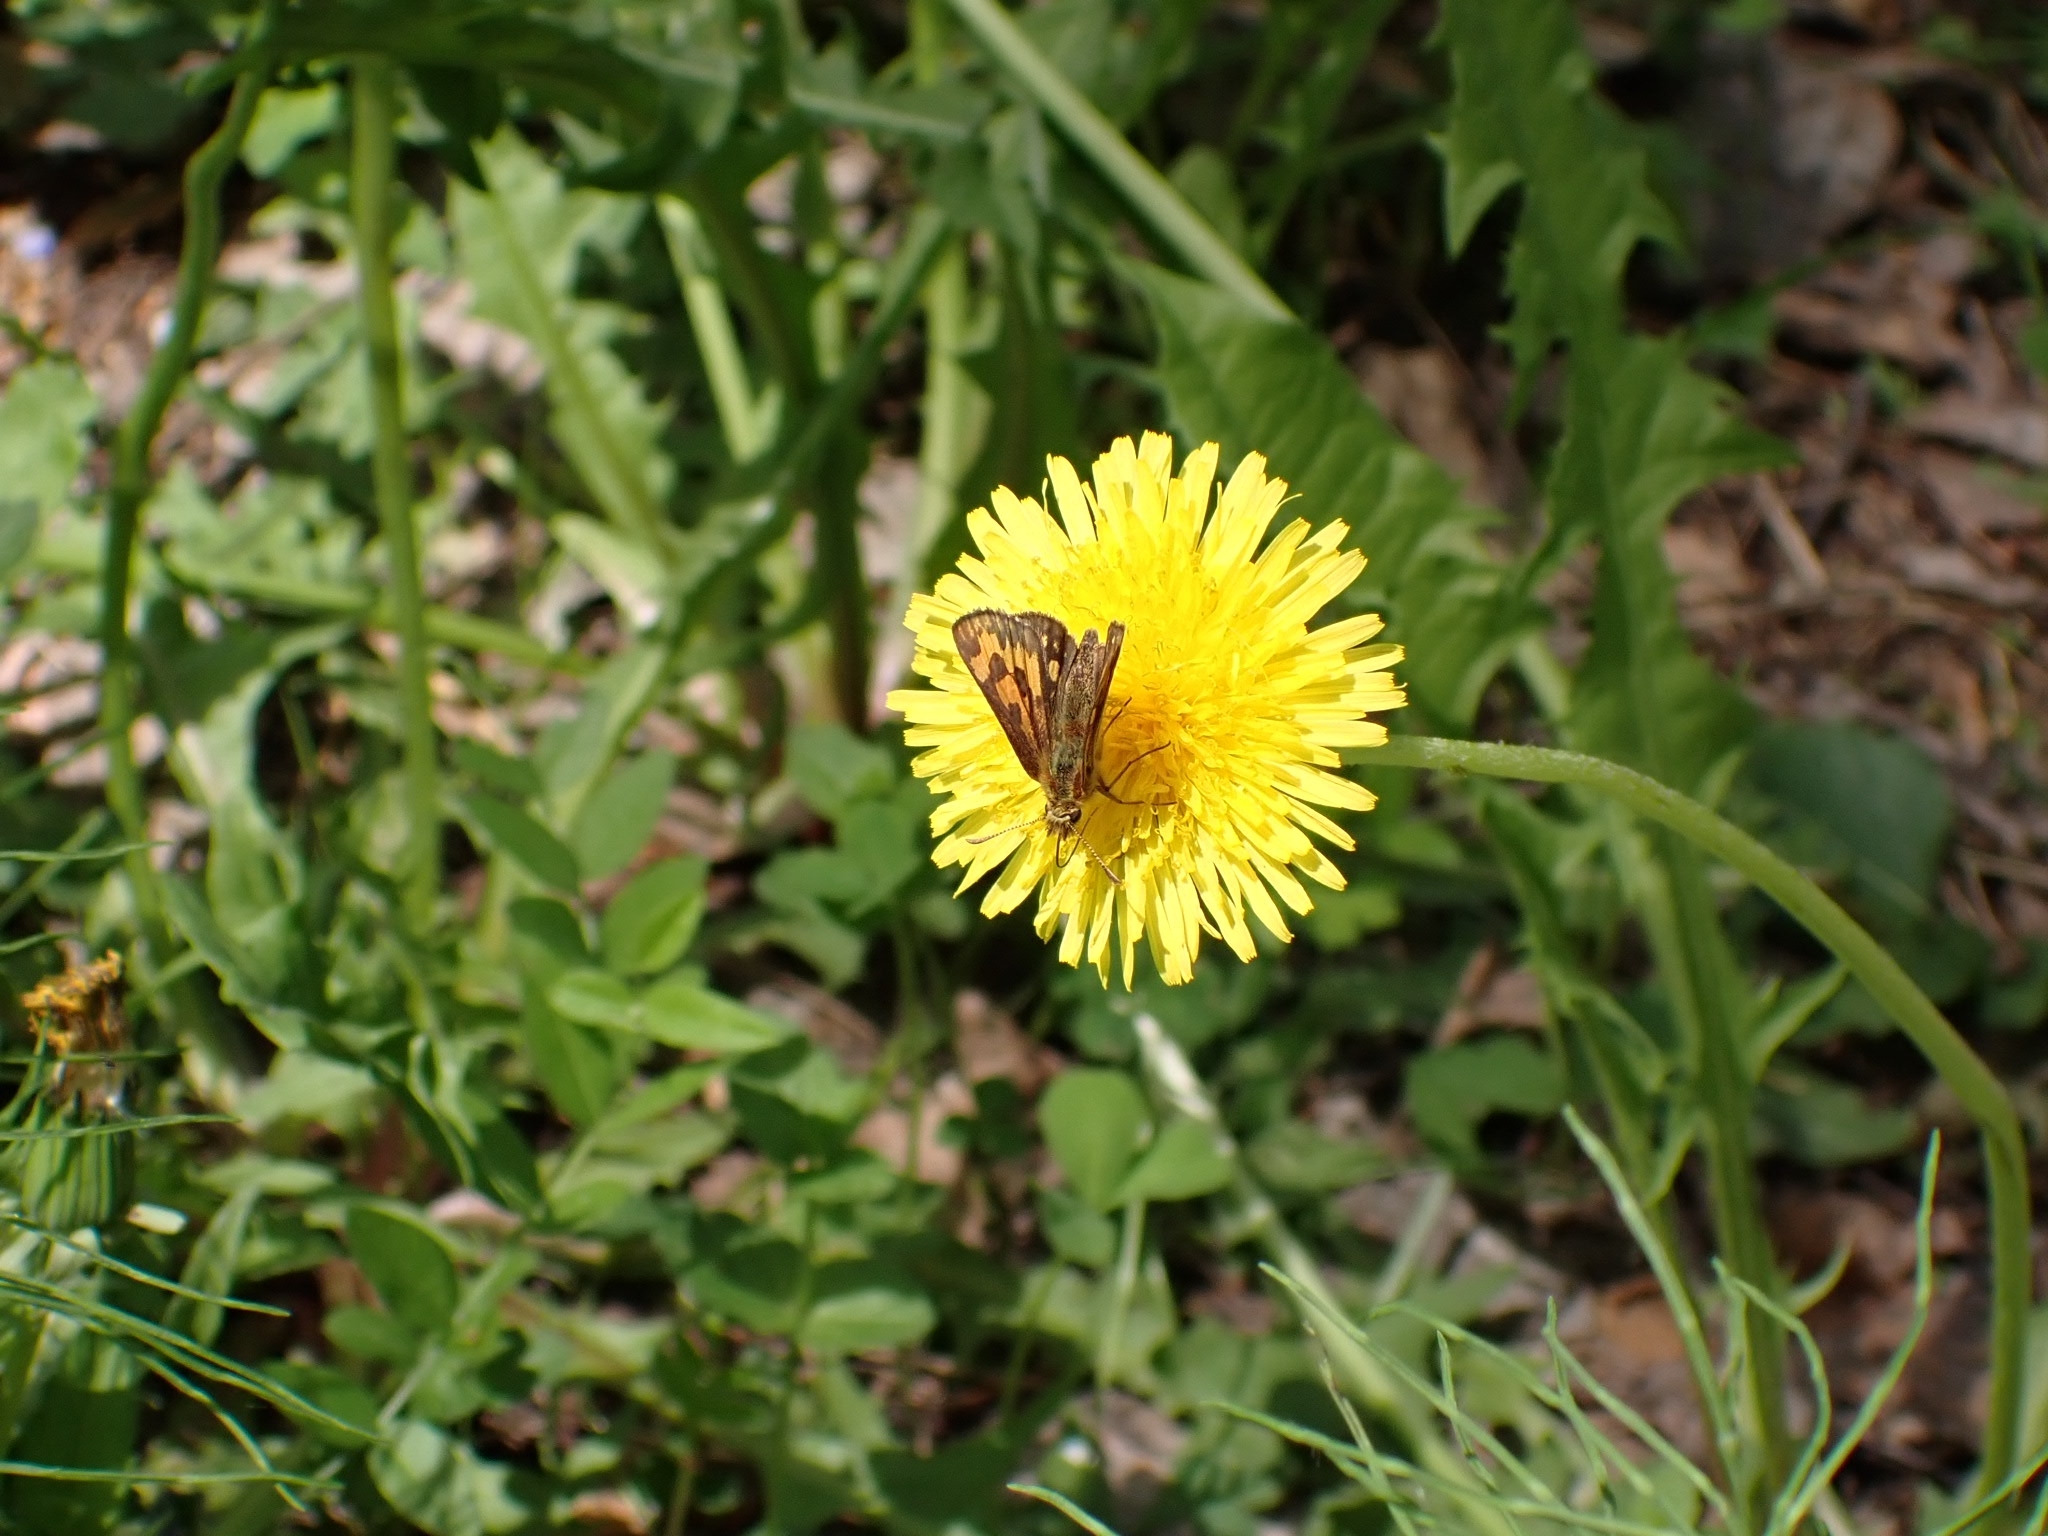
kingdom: Animalia
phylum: Arthropoda
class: Insecta
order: Lepidoptera
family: Hesperiidae
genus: Carterocephalus
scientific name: Carterocephalus silvicola
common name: Northern chequered skipper
